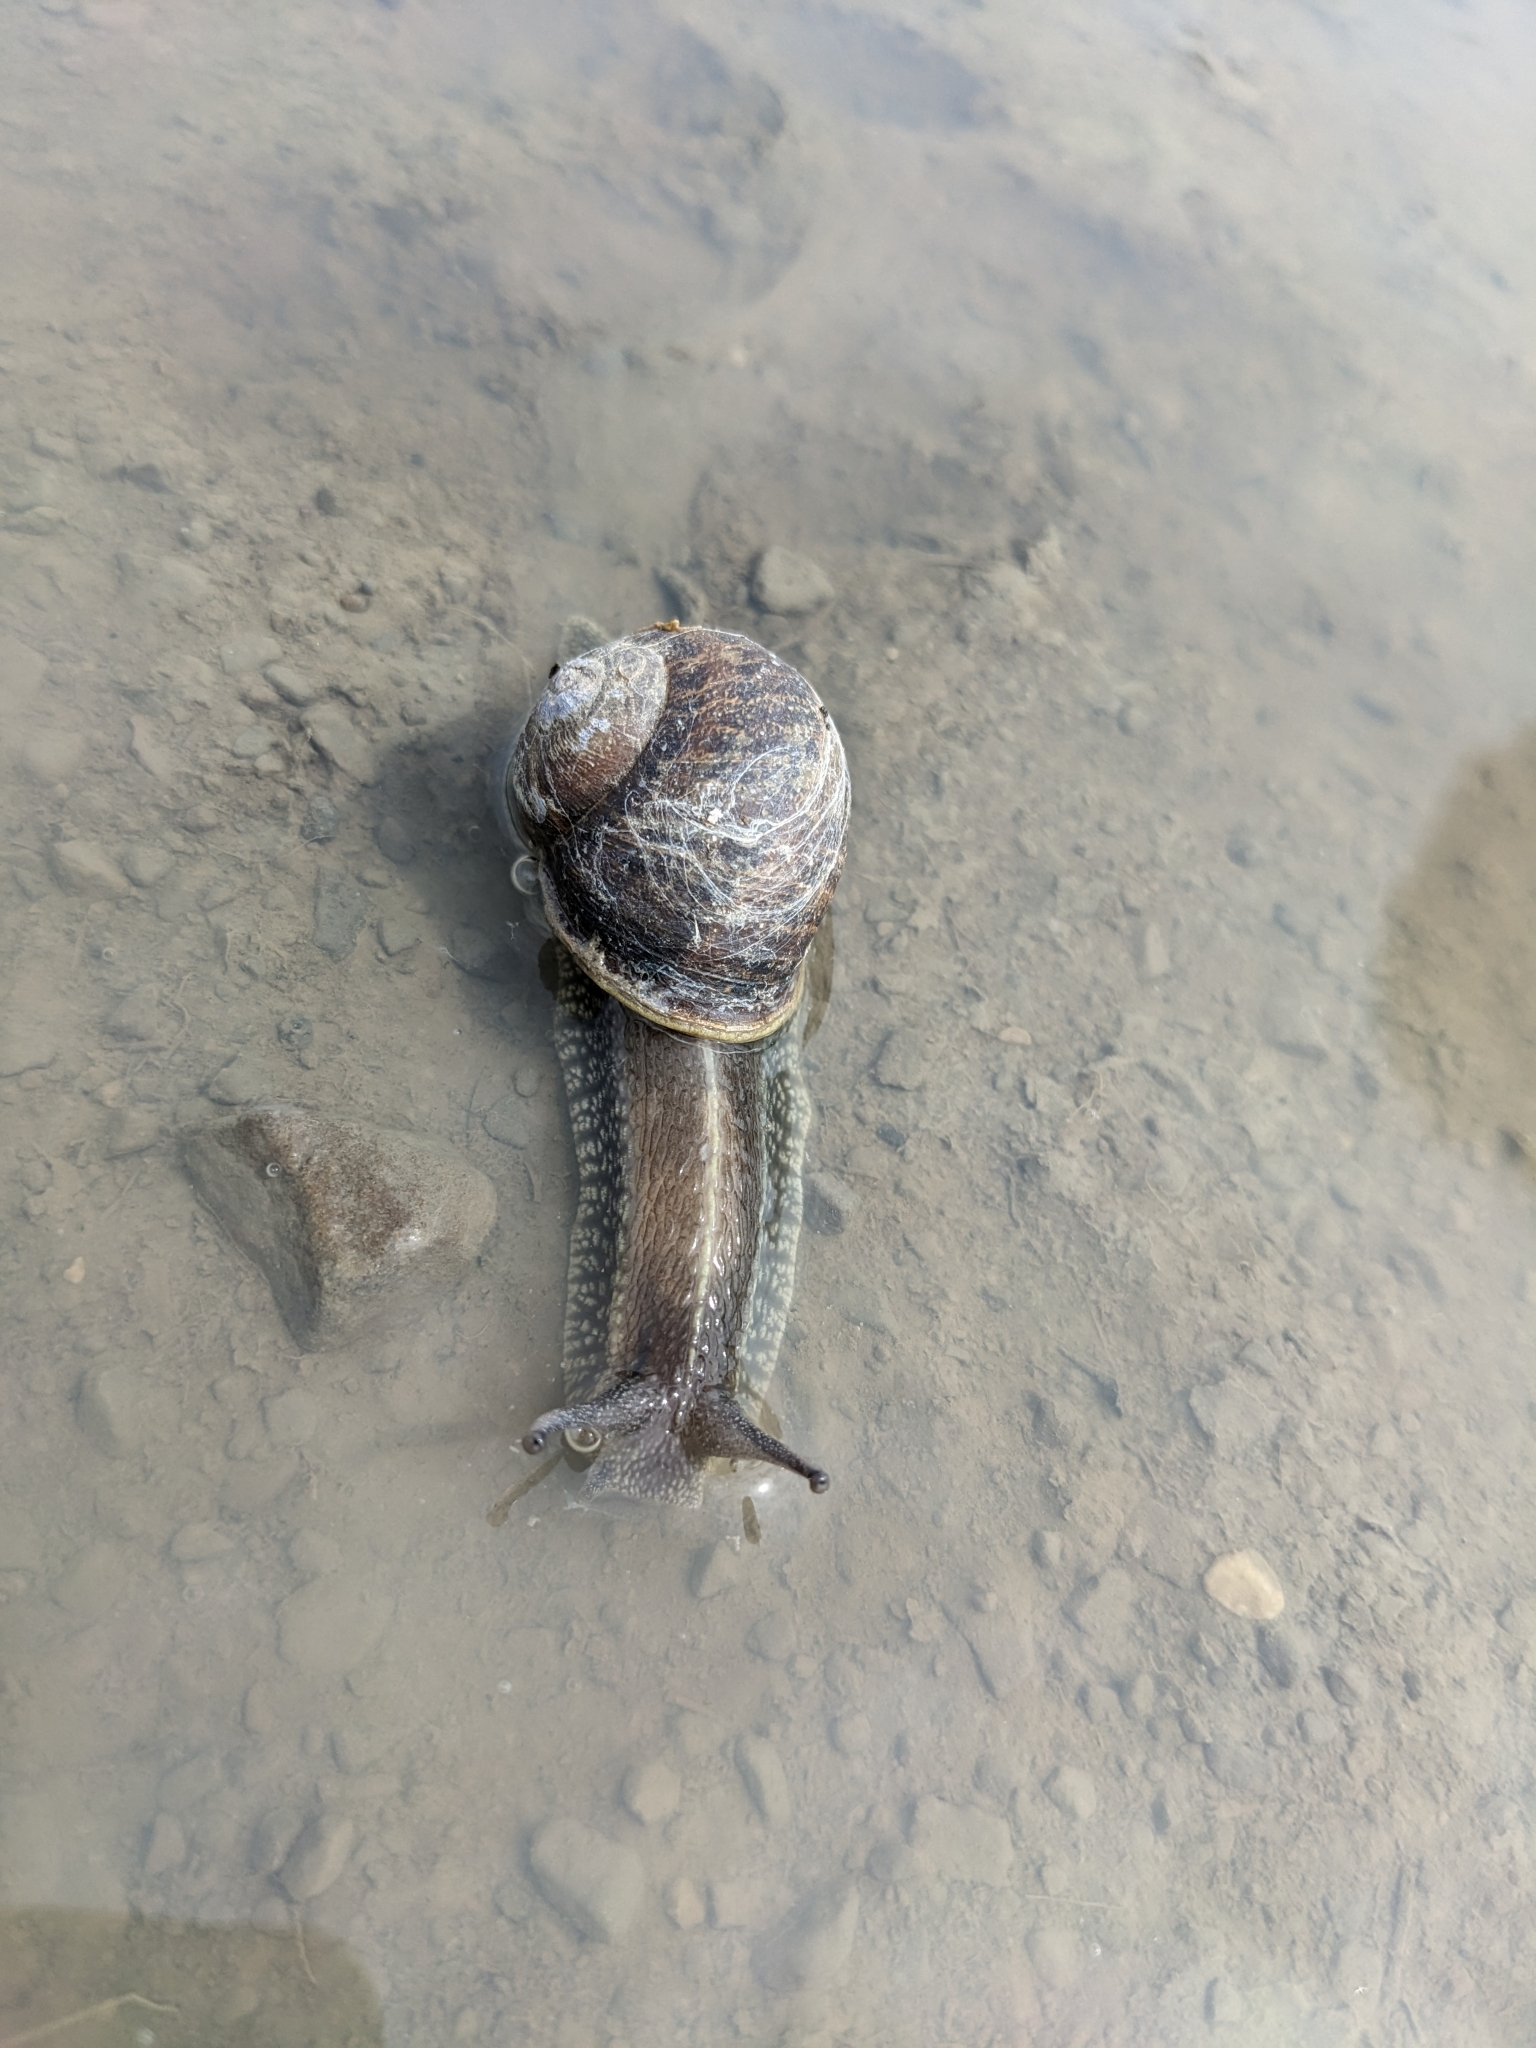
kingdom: Animalia
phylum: Mollusca
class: Gastropoda
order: Stylommatophora
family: Helicidae
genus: Cornu
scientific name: Cornu aspersum
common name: Brown garden snail
